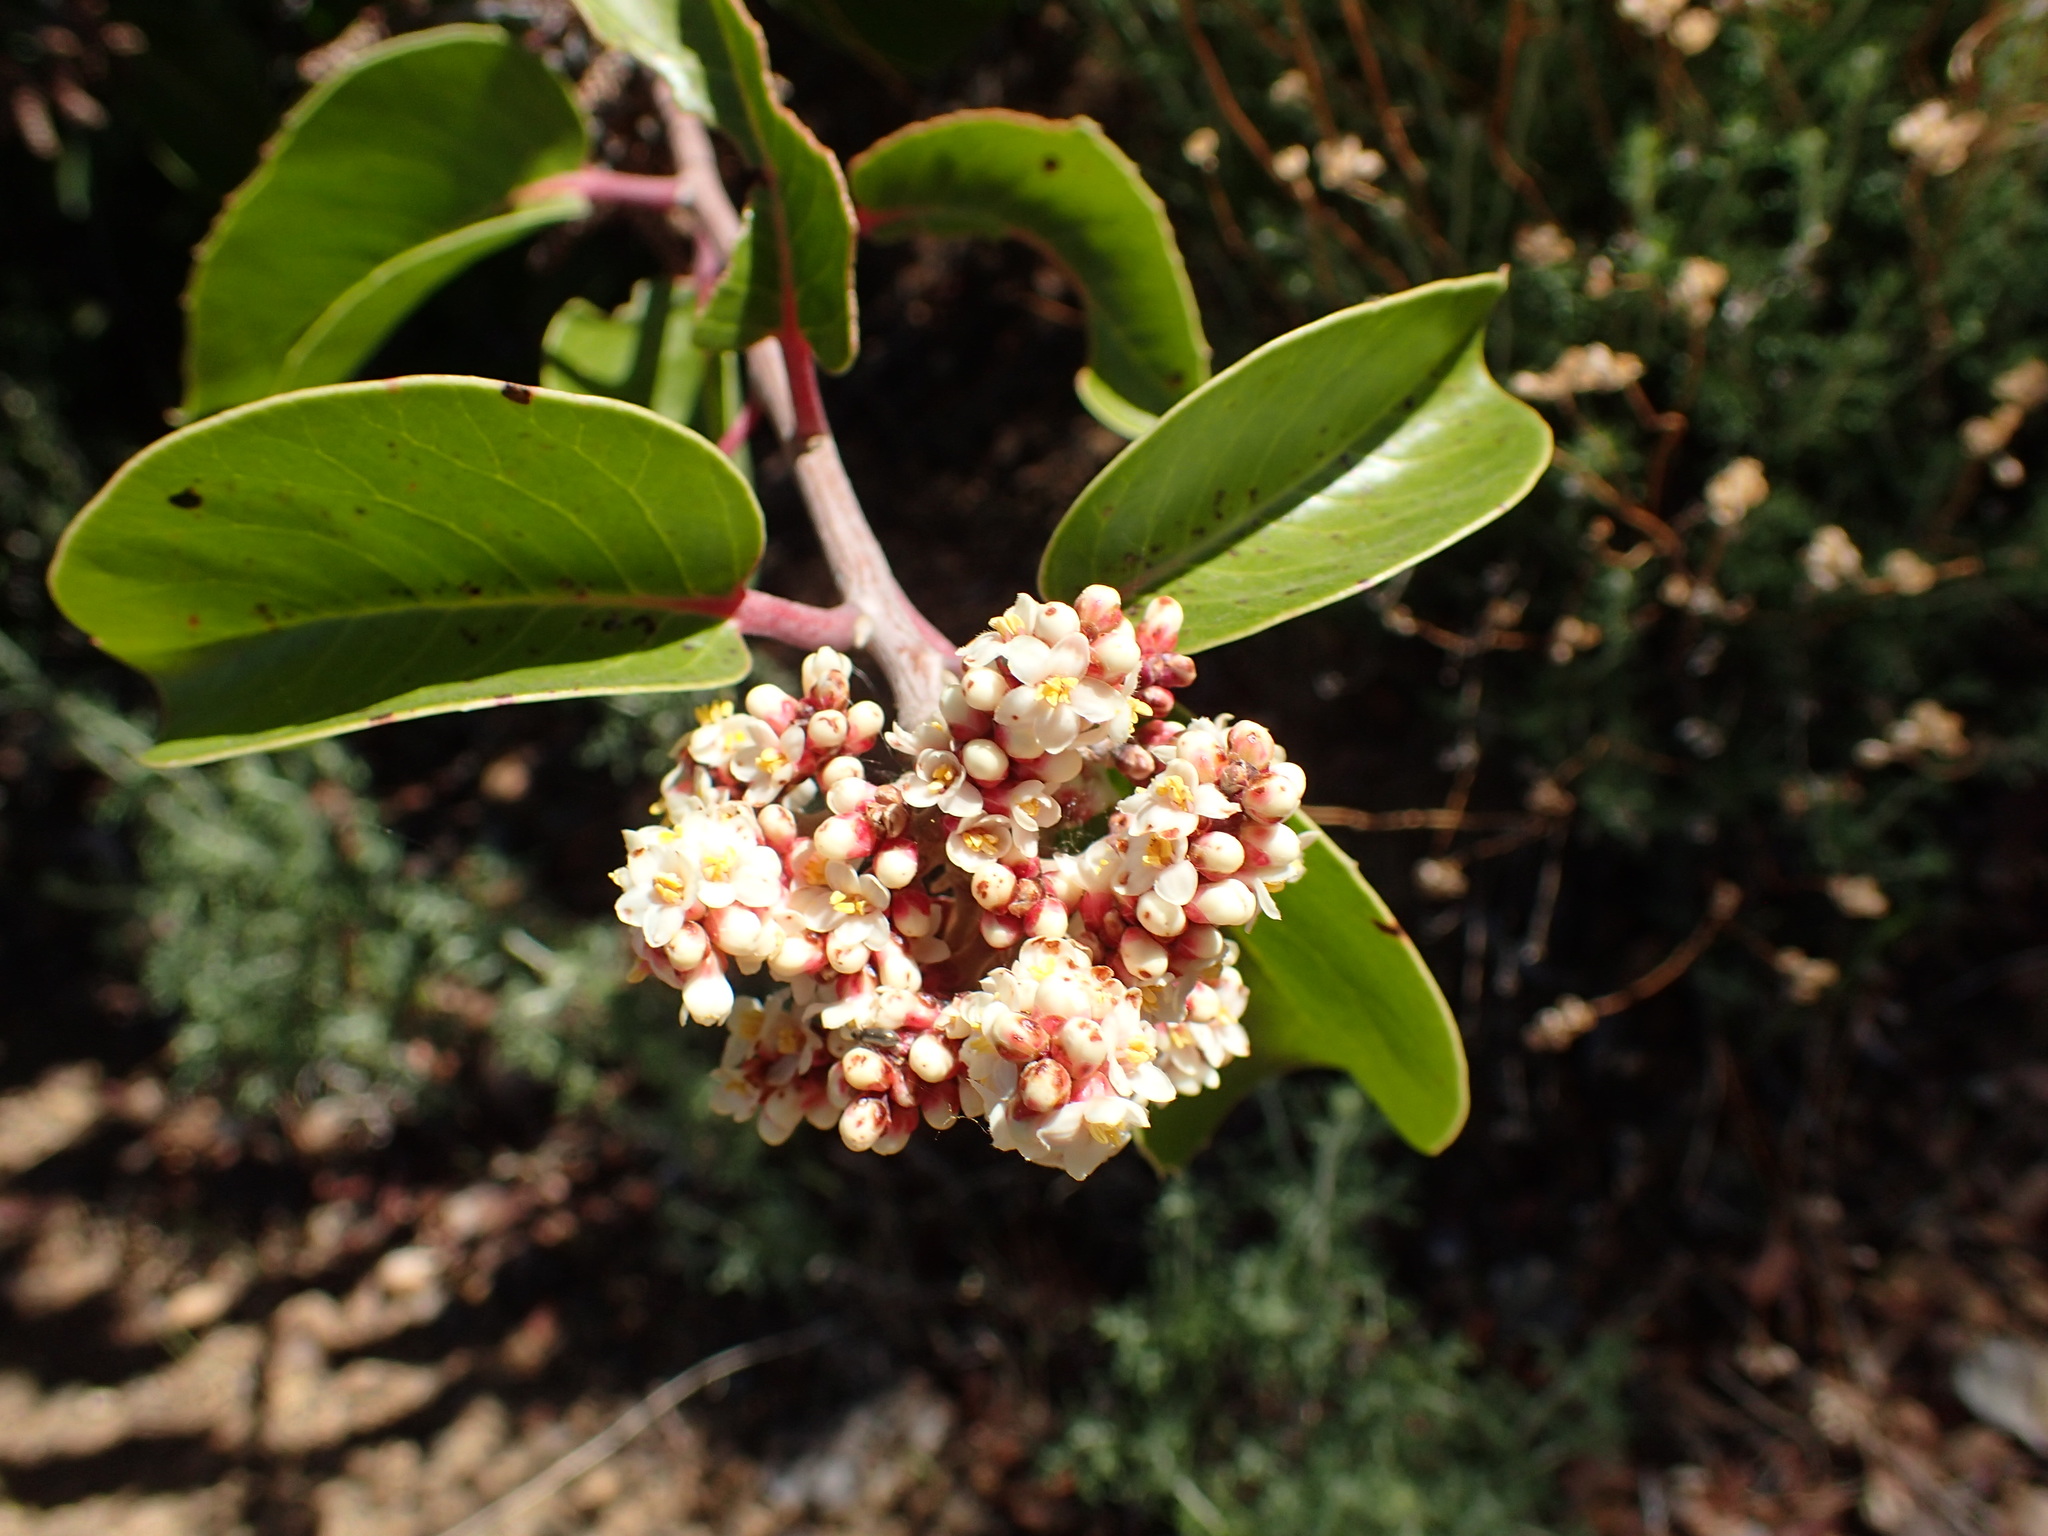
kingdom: Plantae
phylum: Tracheophyta
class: Magnoliopsida
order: Sapindales
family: Anacardiaceae
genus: Rhus
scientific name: Rhus ovata
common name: Sugar sumac
